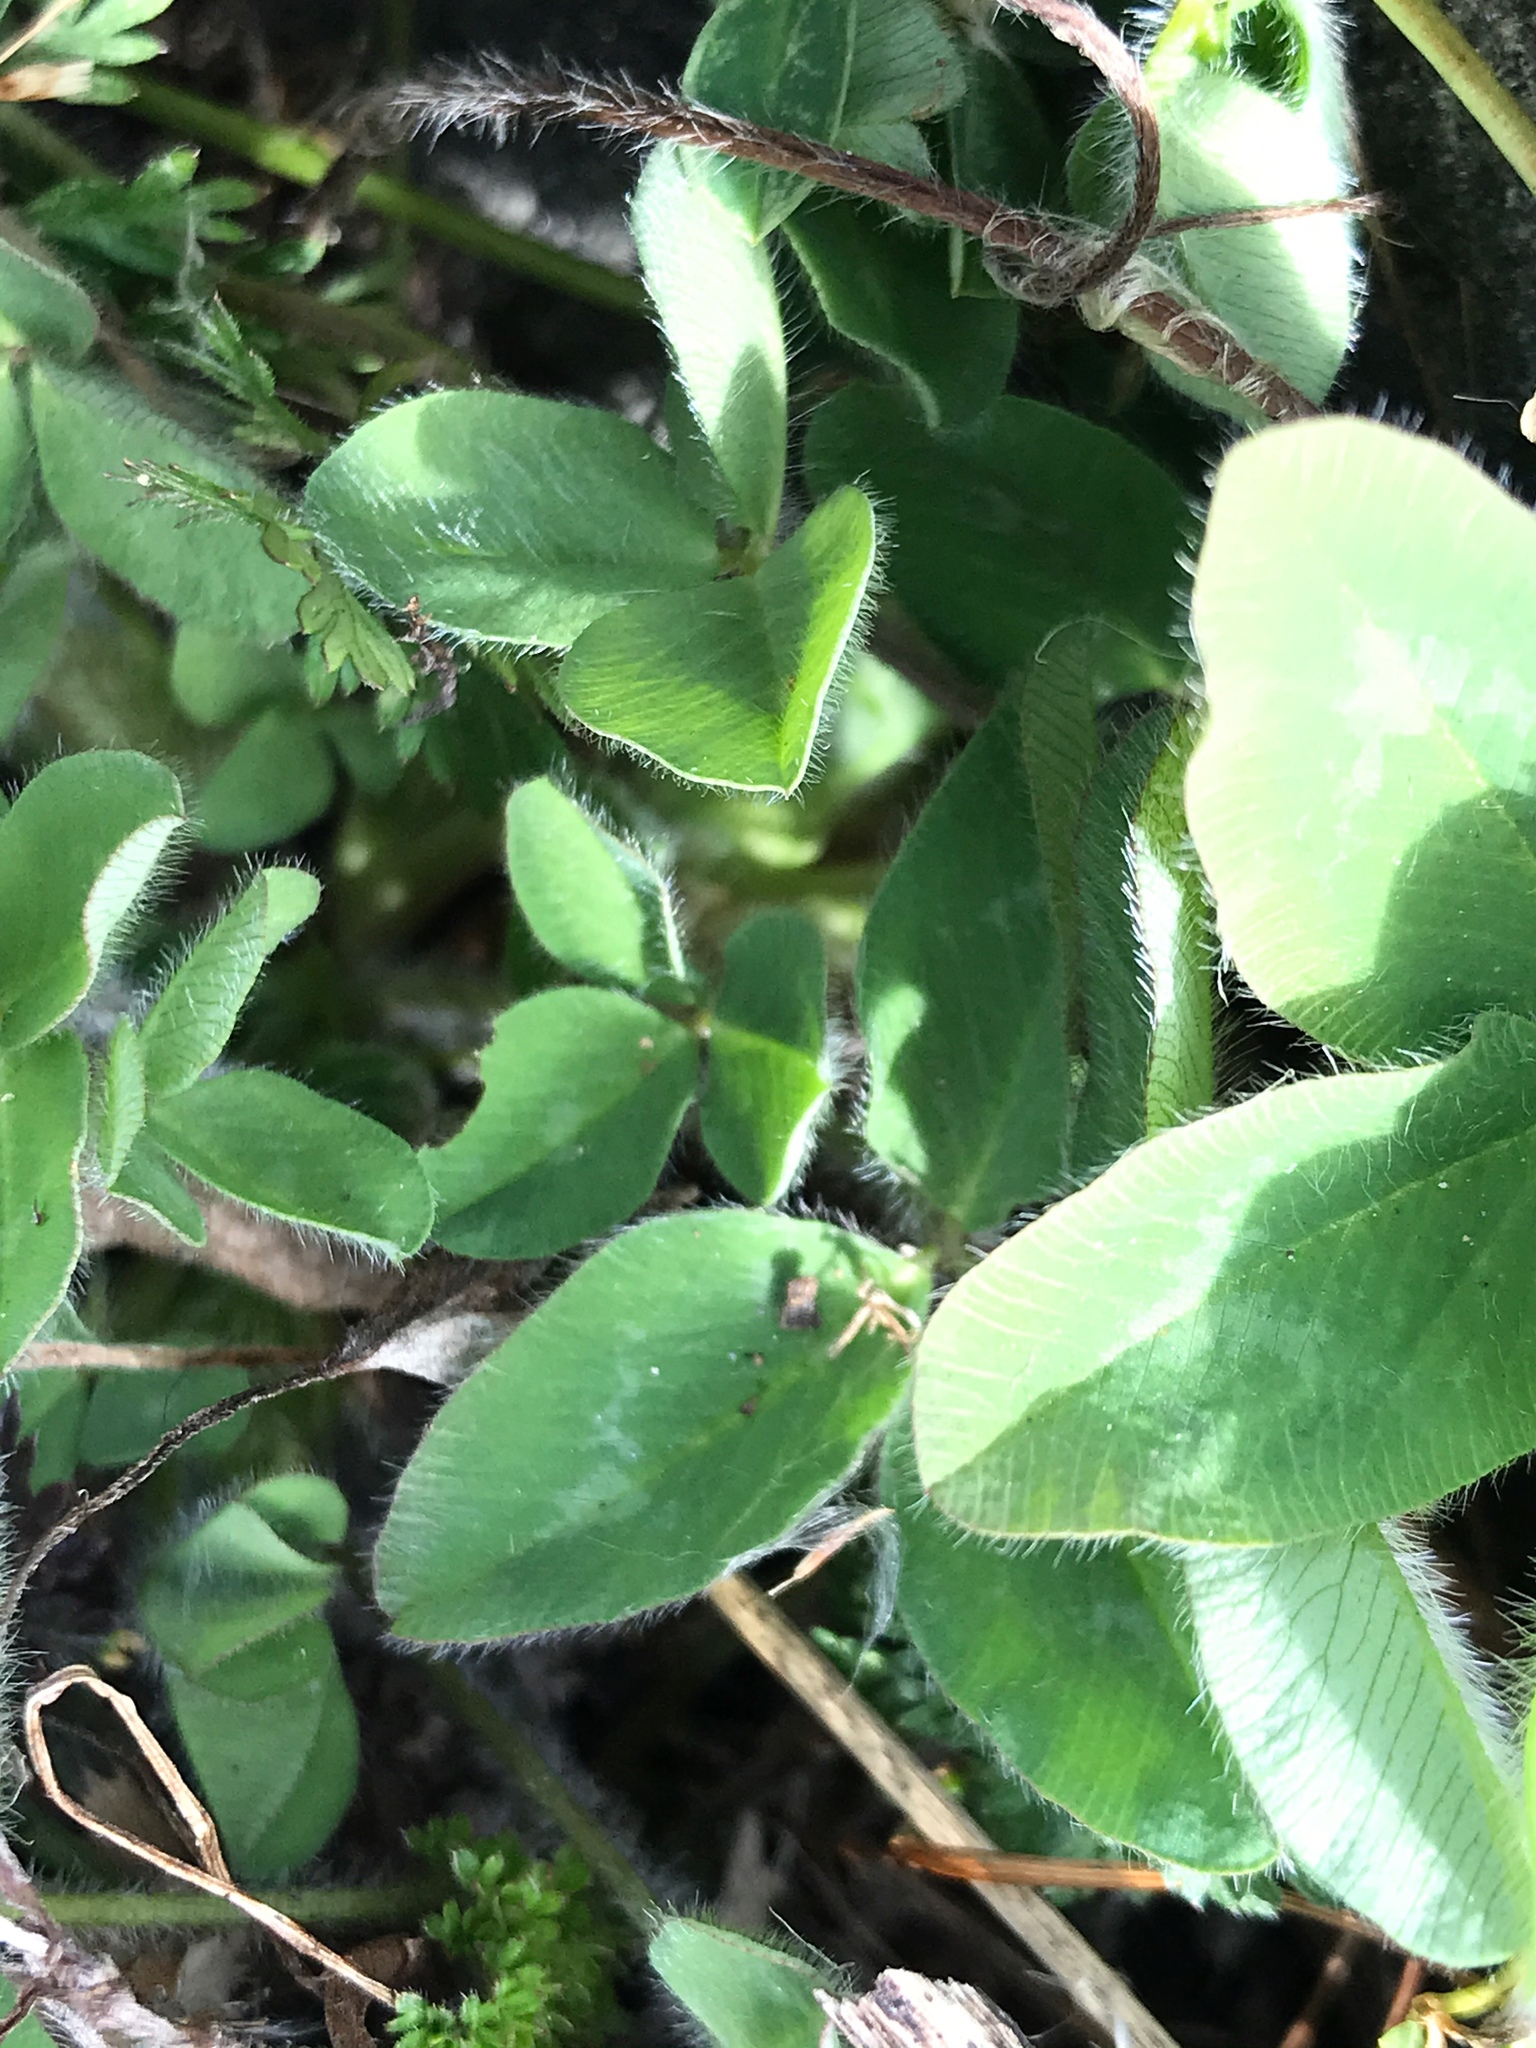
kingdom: Plantae
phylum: Tracheophyta
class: Magnoliopsida
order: Fabales
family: Fabaceae
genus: Trifolium
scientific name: Trifolium pratense
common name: Red clover
